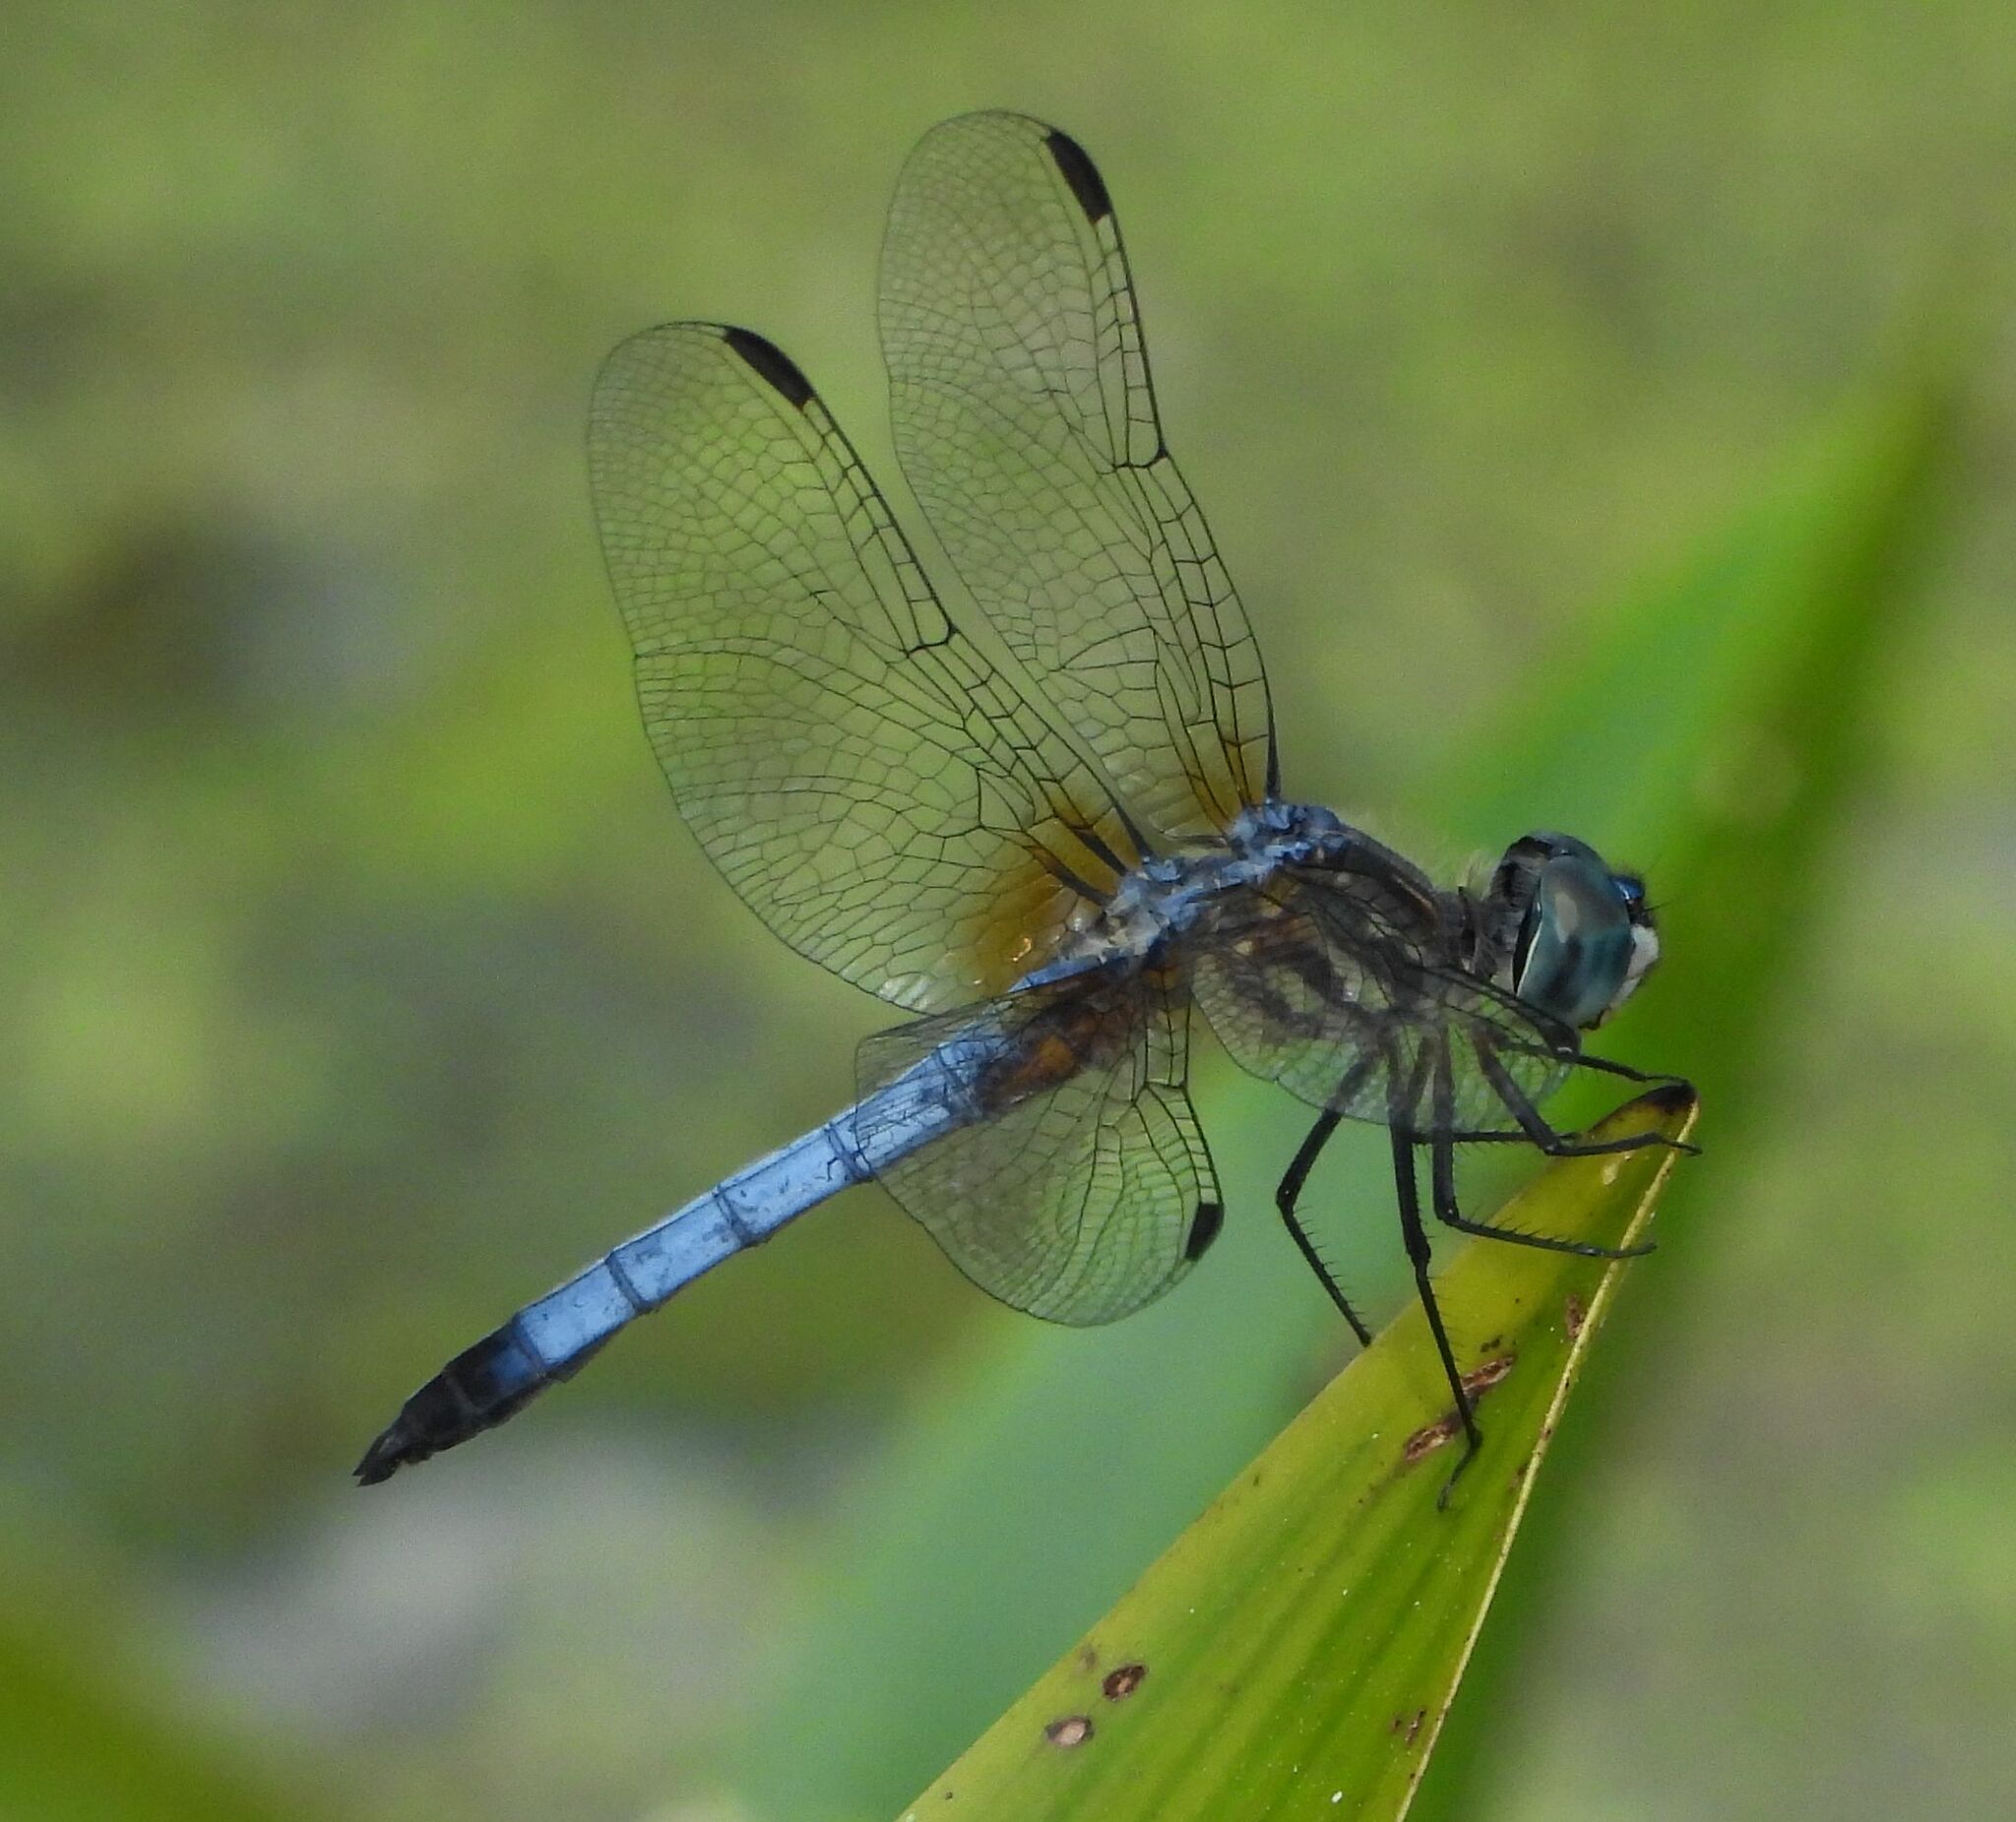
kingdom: Animalia
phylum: Arthropoda
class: Insecta
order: Odonata
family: Libellulidae
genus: Pachydiplax
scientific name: Pachydiplax longipennis
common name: Blue dasher
